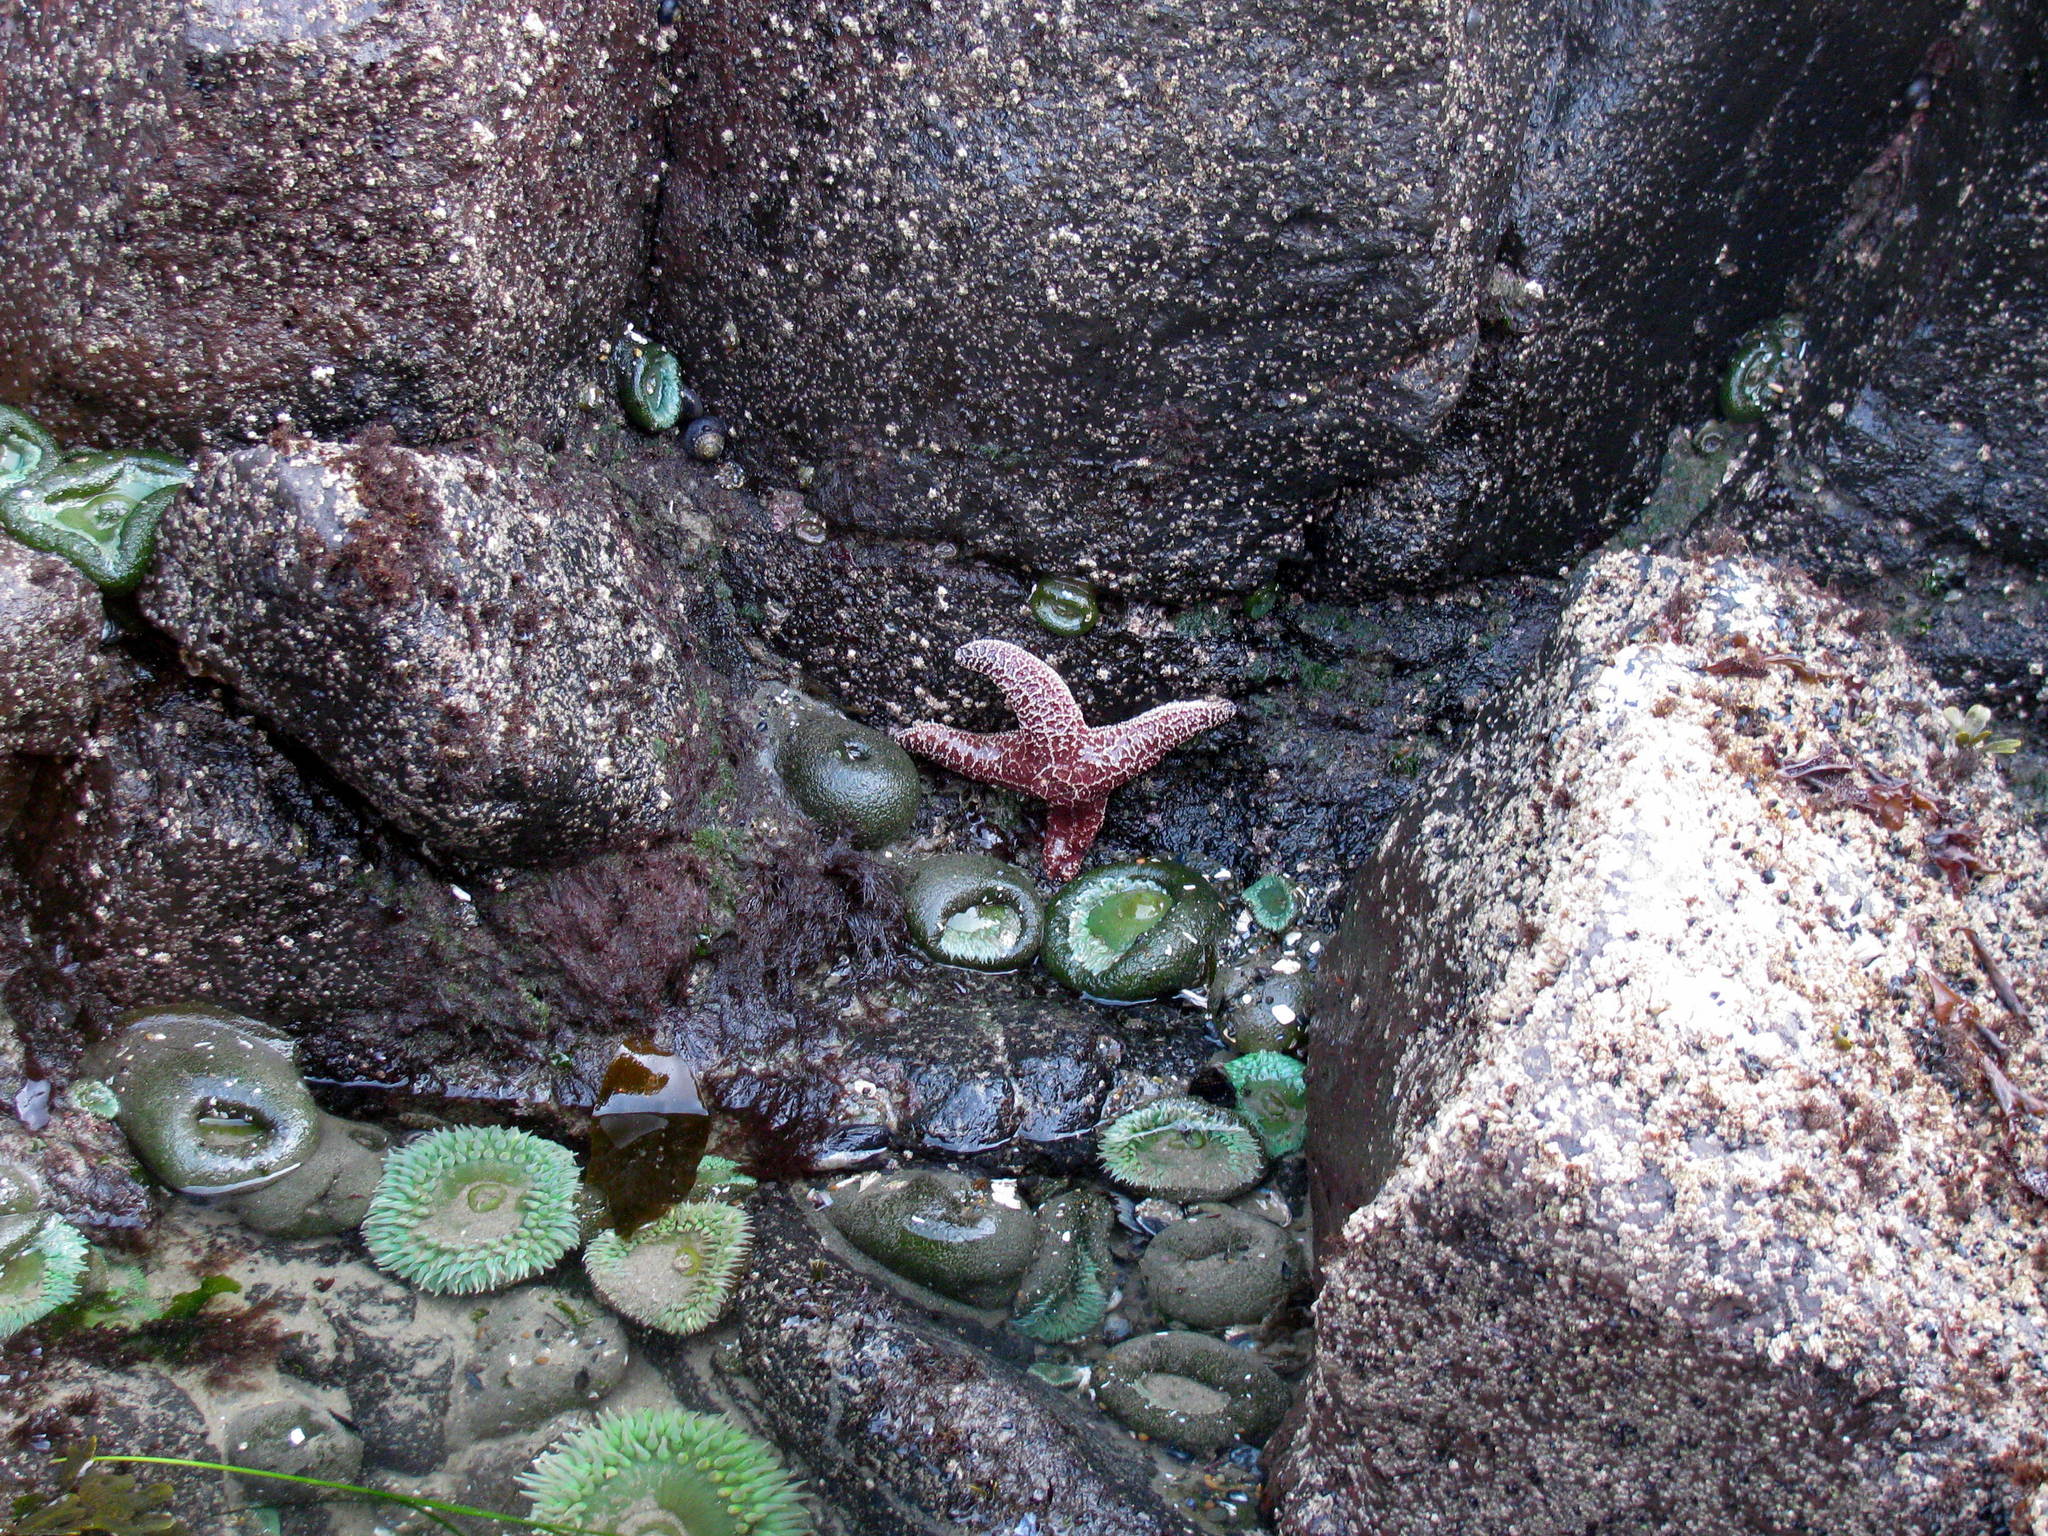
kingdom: Animalia
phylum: Echinodermata
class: Asteroidea
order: Forcipulatida
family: Asteriidae
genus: Pisaster
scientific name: Pisaster ochraceus
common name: Ochre stars
